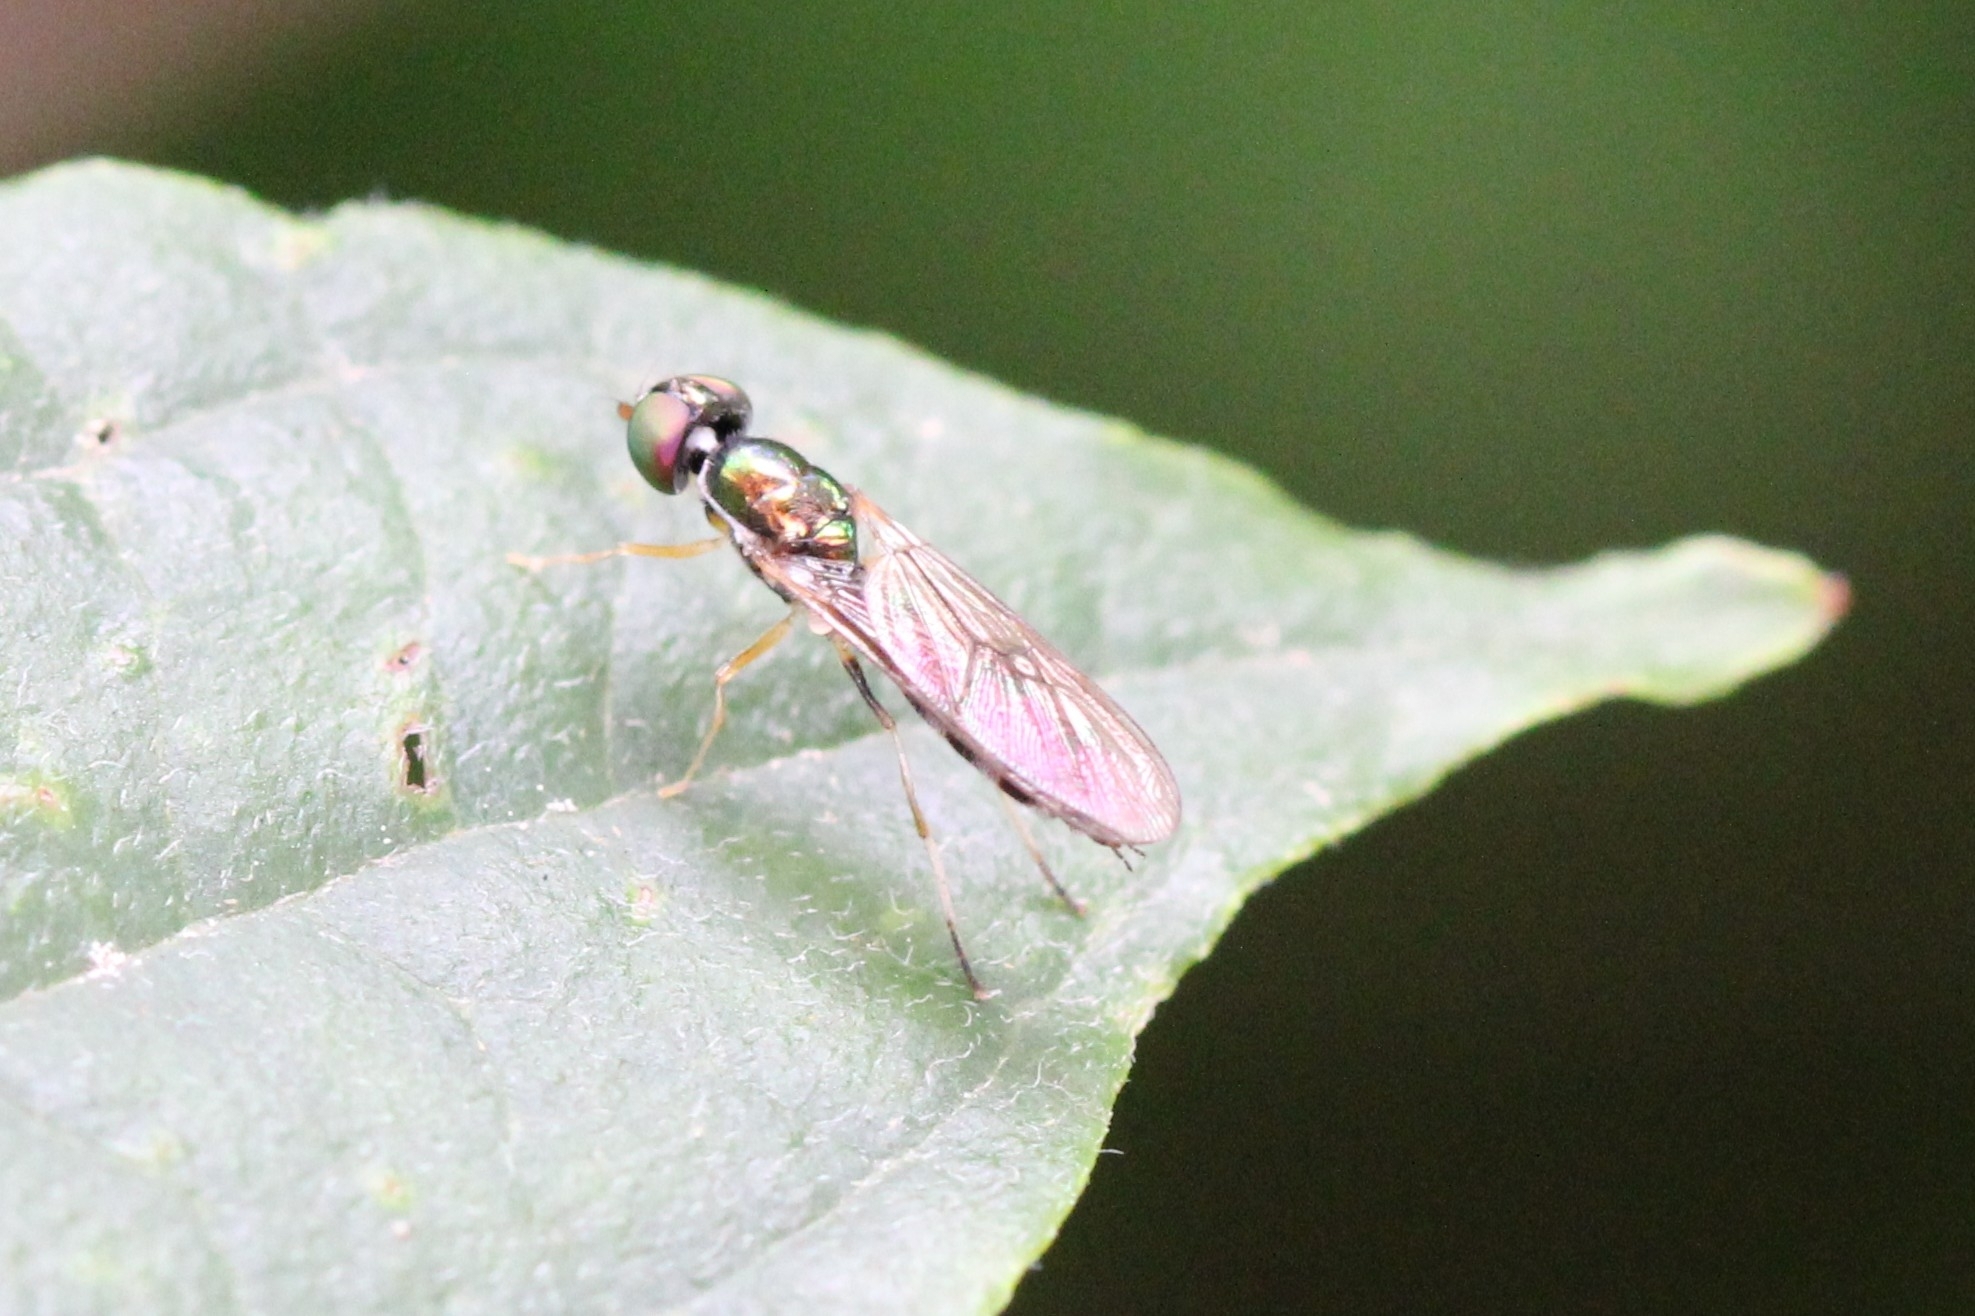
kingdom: Animalia
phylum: Arthropoda
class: Insecta
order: Diptera
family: Stratiomyidae
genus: Sargus
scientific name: Sargus fasciatus
